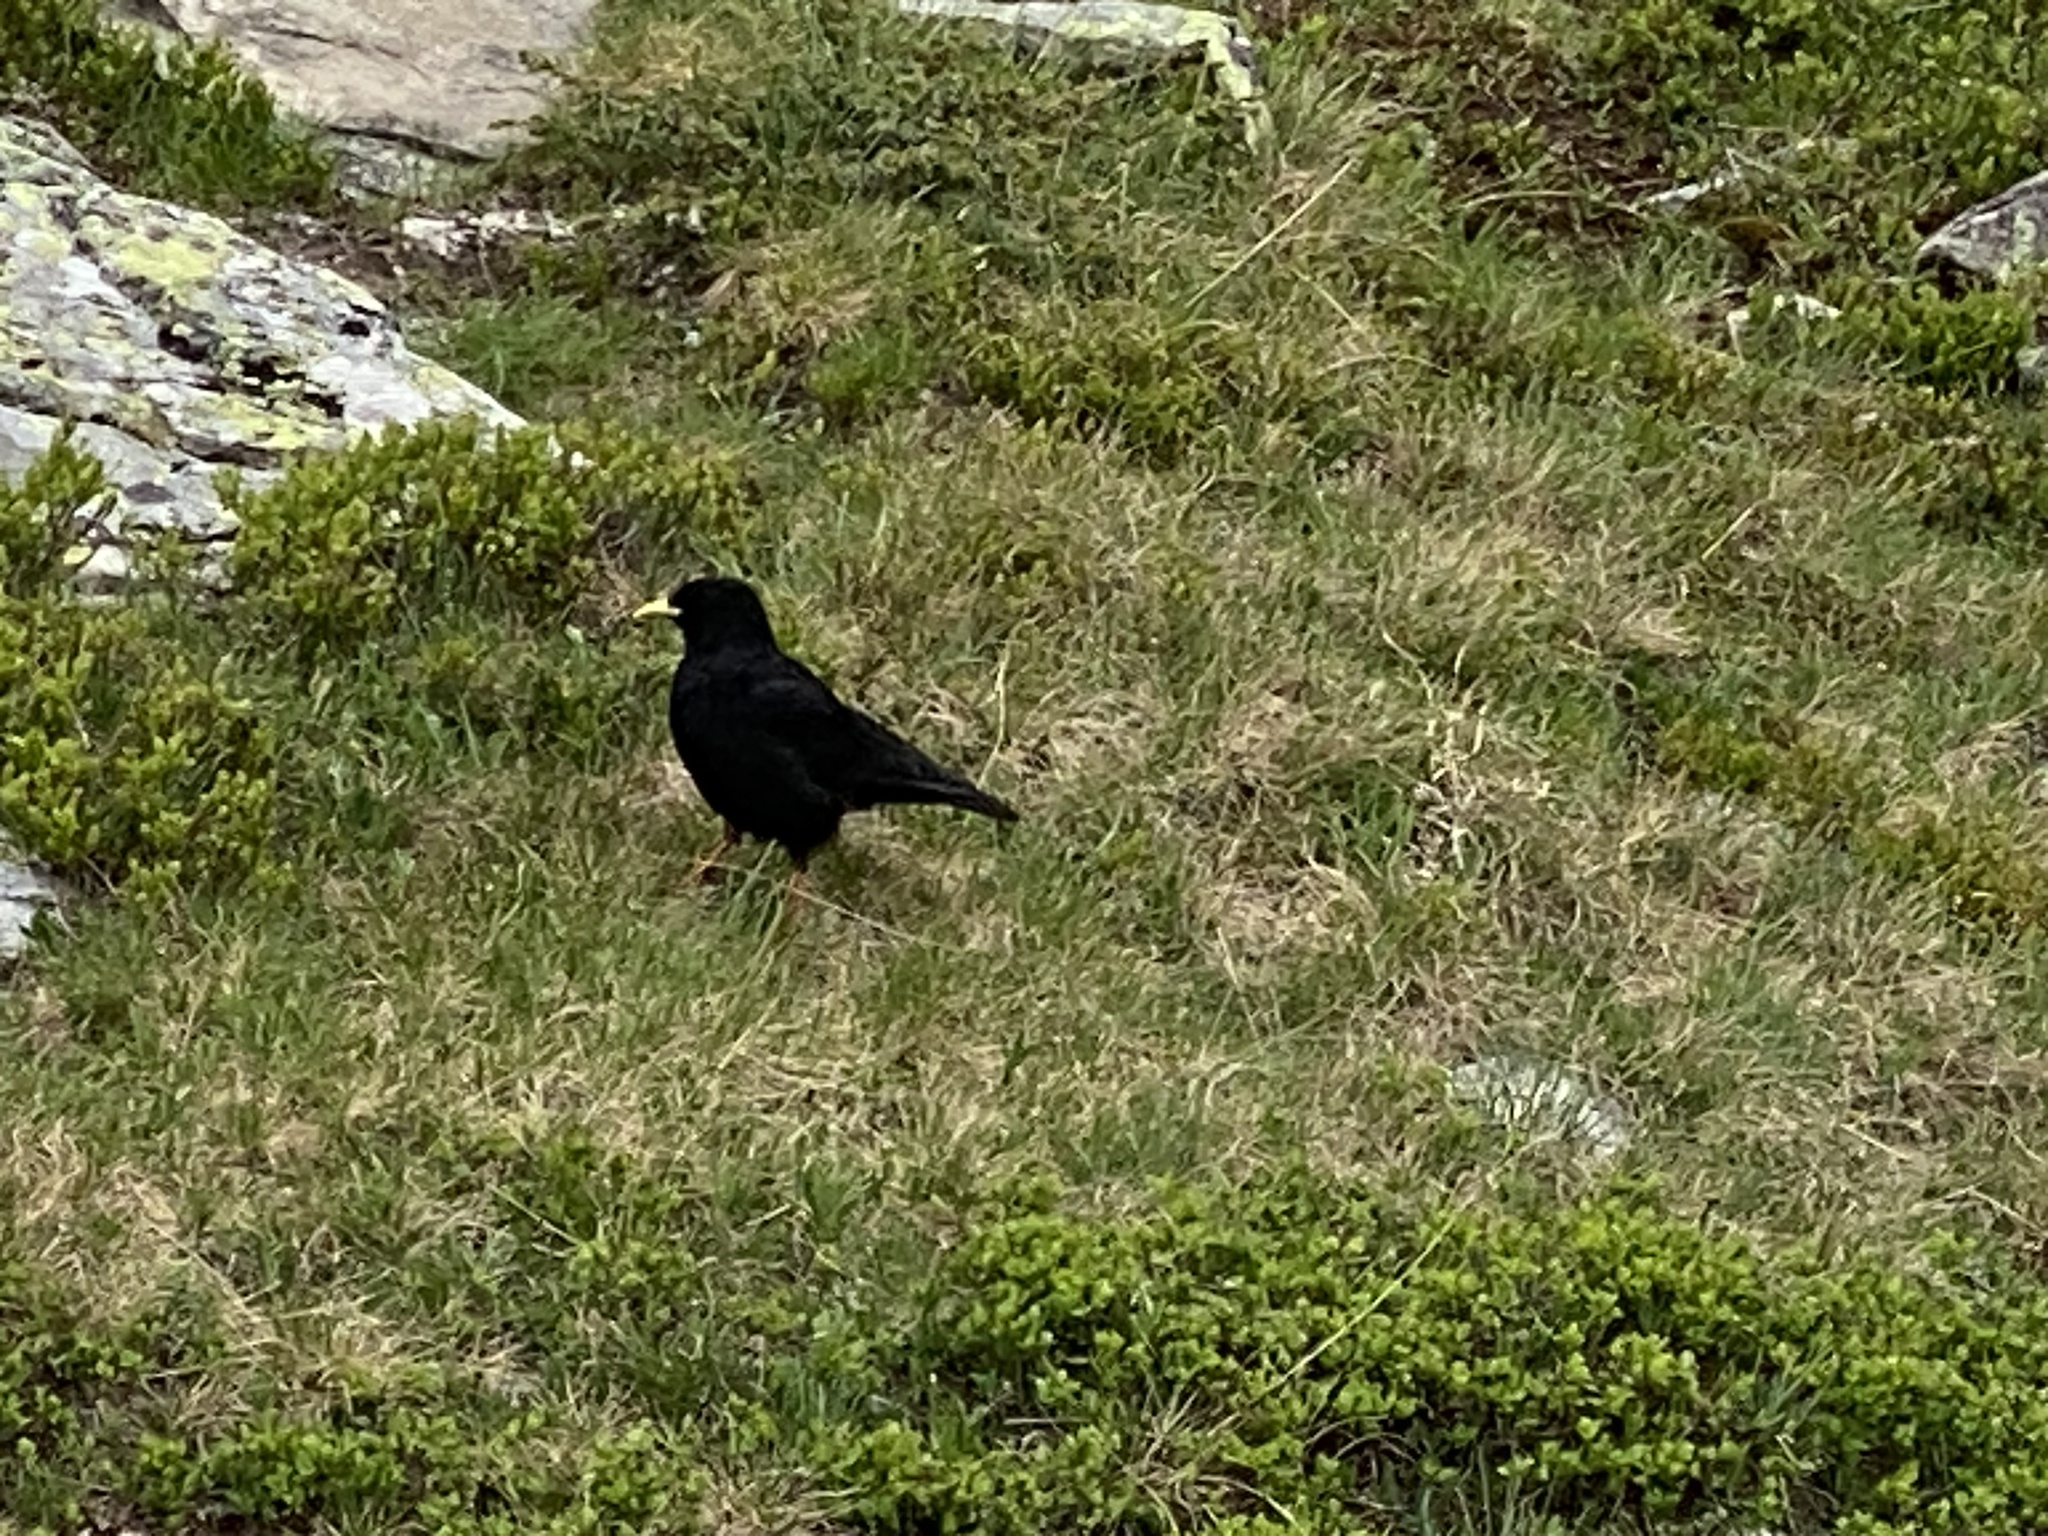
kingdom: Animalia
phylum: Chordata
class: Aves
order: Passeriformes
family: Corvidae
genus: Pyrrhocorax
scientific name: Pyrrhocorax graculus
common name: Alpine chough
